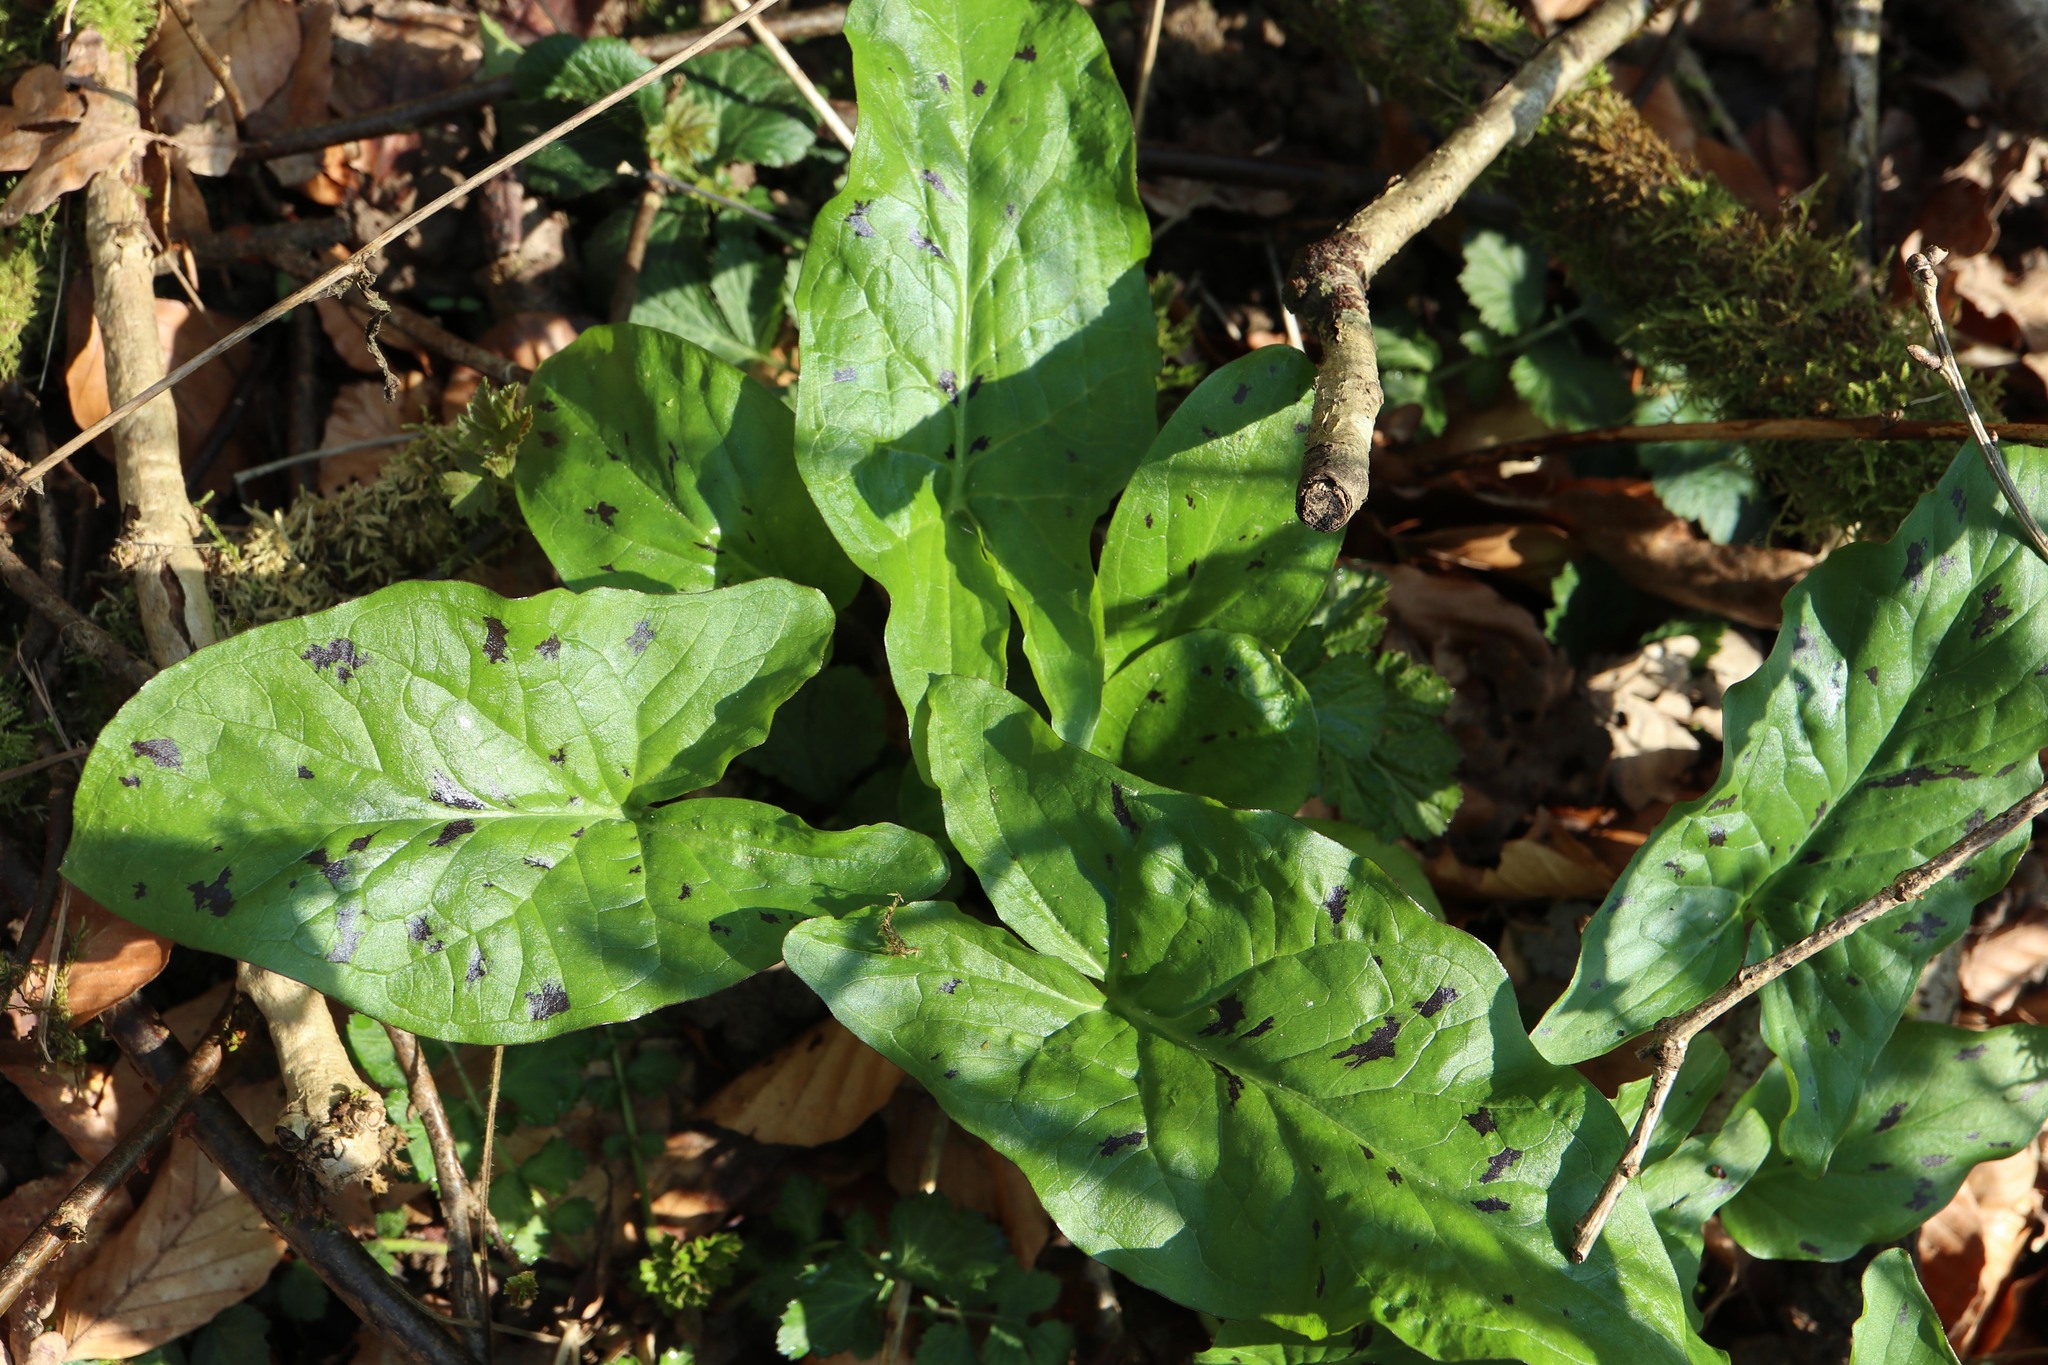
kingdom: Plantae
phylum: Tracheophyta
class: Liliopsida
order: Alismatales
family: Araceae
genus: Arum
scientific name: Arum maculatum
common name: Lords-and-ladies
